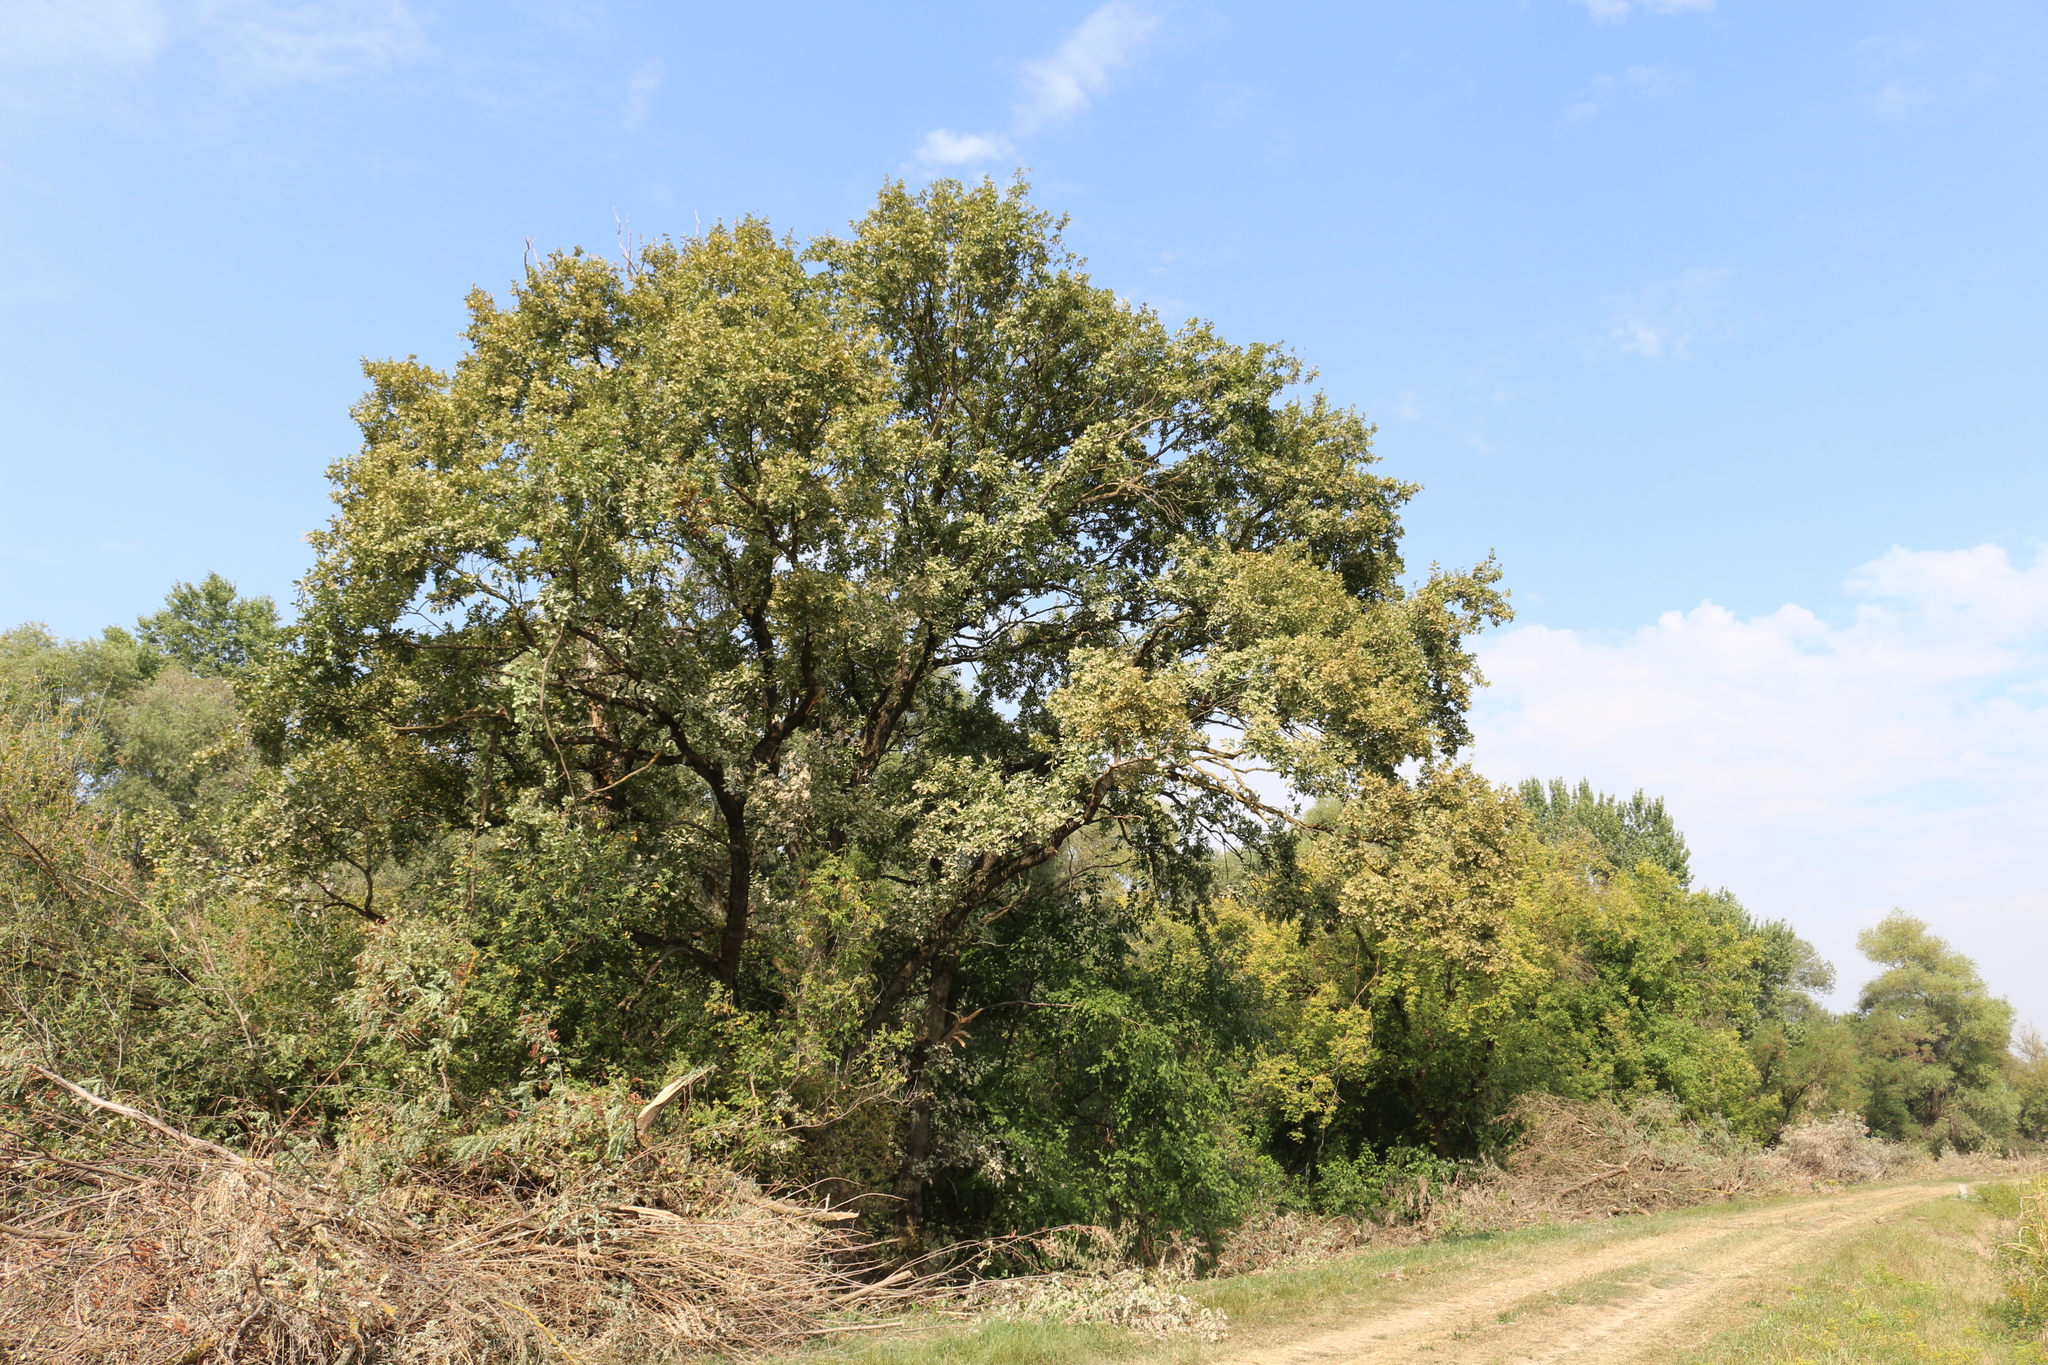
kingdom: Plantae
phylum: Tracheophyta
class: Magnoliopsida
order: Fagales
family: Fagaceae
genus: Quercus
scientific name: Quercus robur
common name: Pedunculate oak
